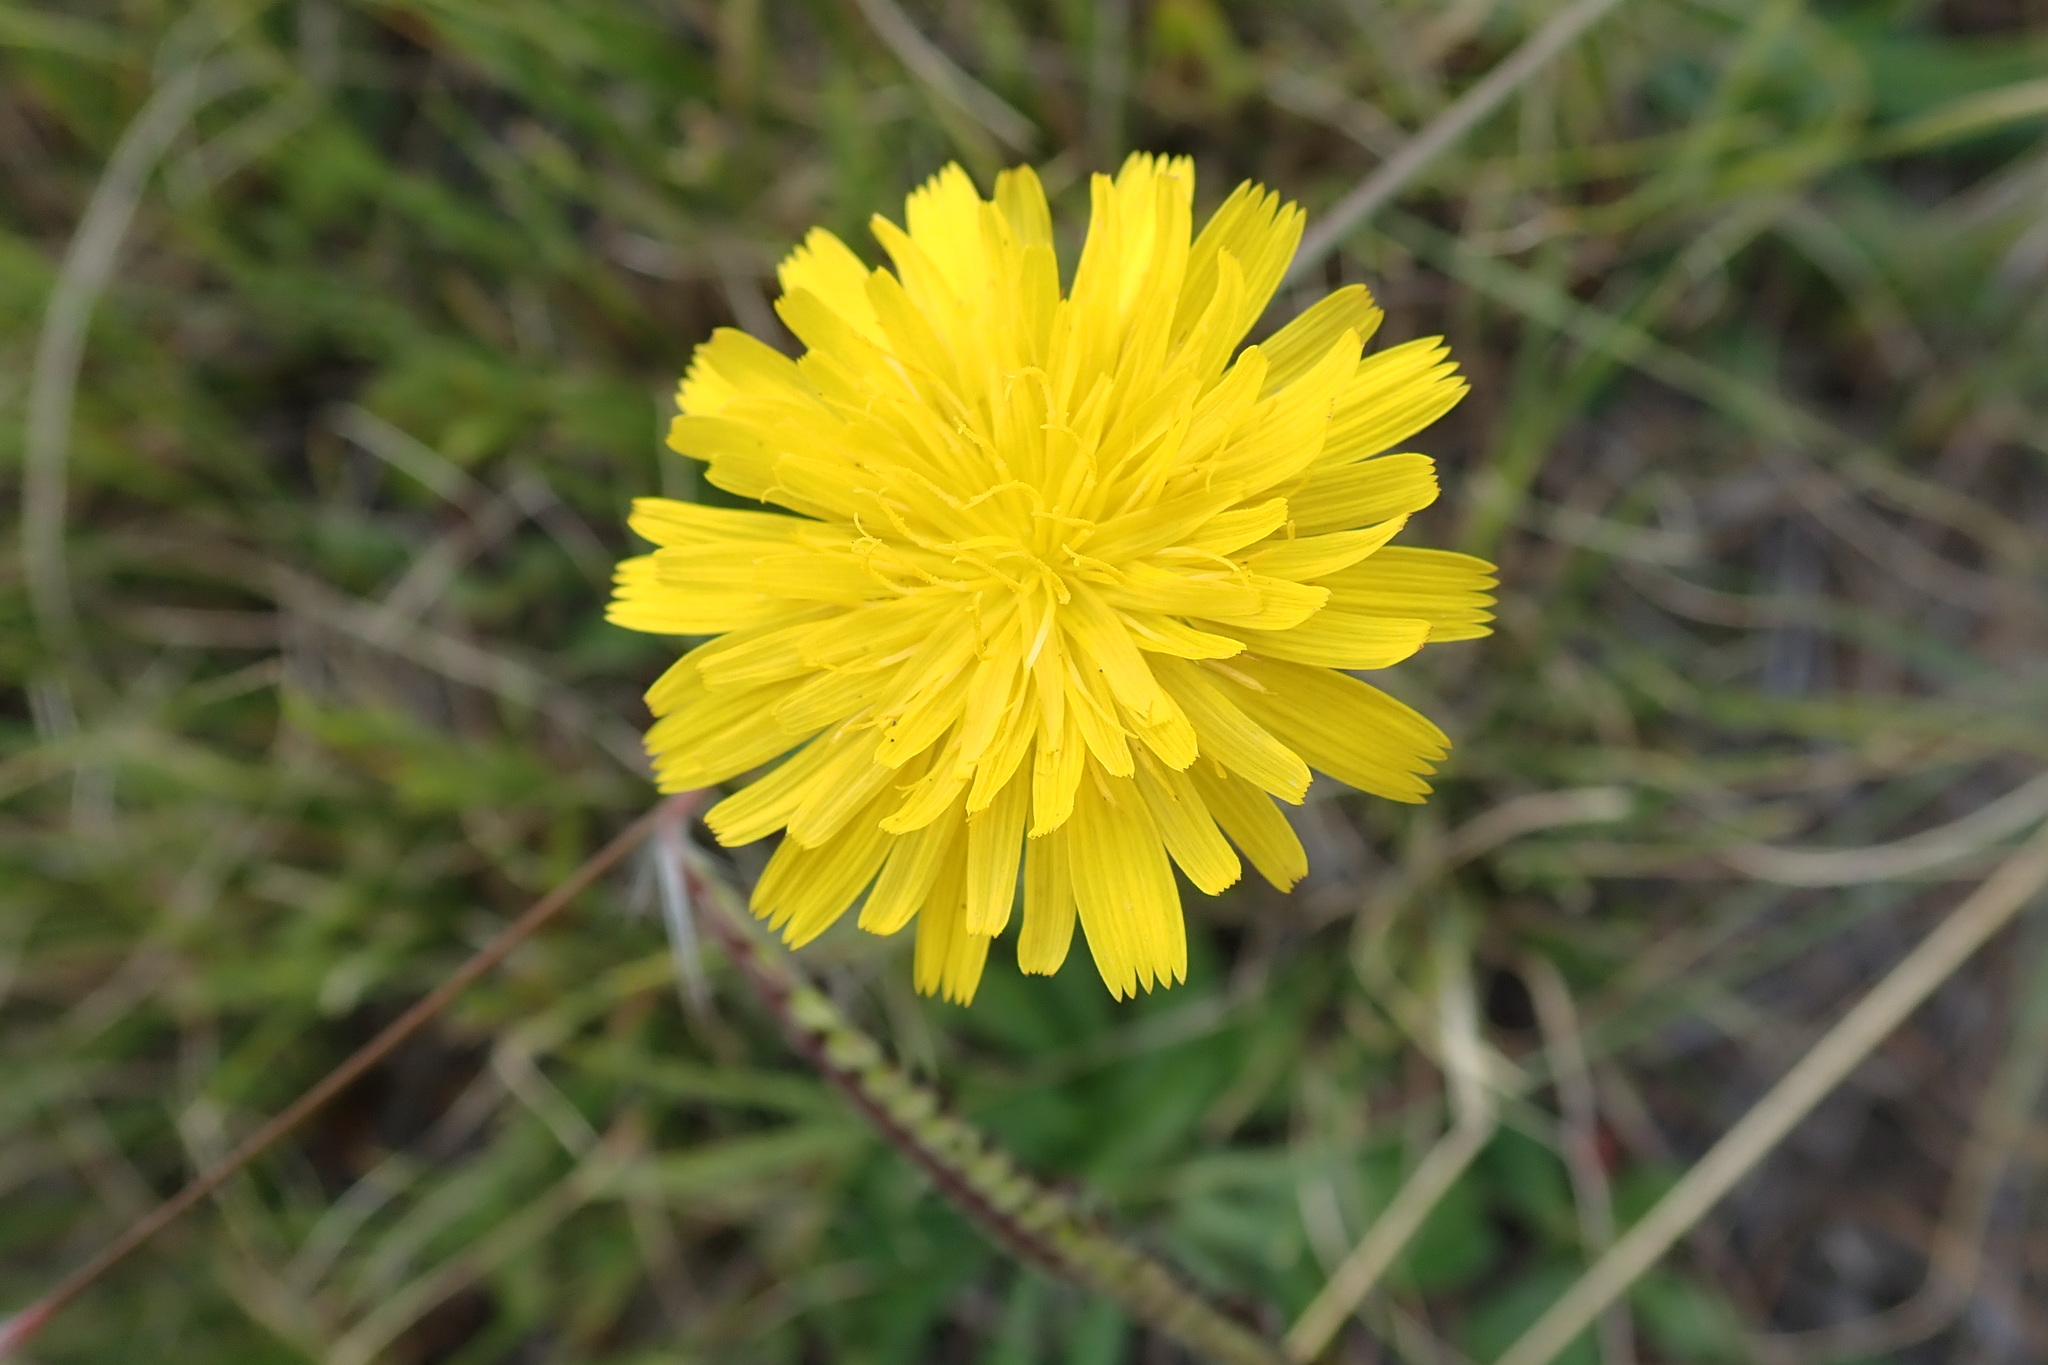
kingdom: Plantae
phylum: Tracheophyta
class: Magnoliopsida
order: Asterales
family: Asteraceae
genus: Hypochaeris
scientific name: Hypochaeris radicata
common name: Flatweed
